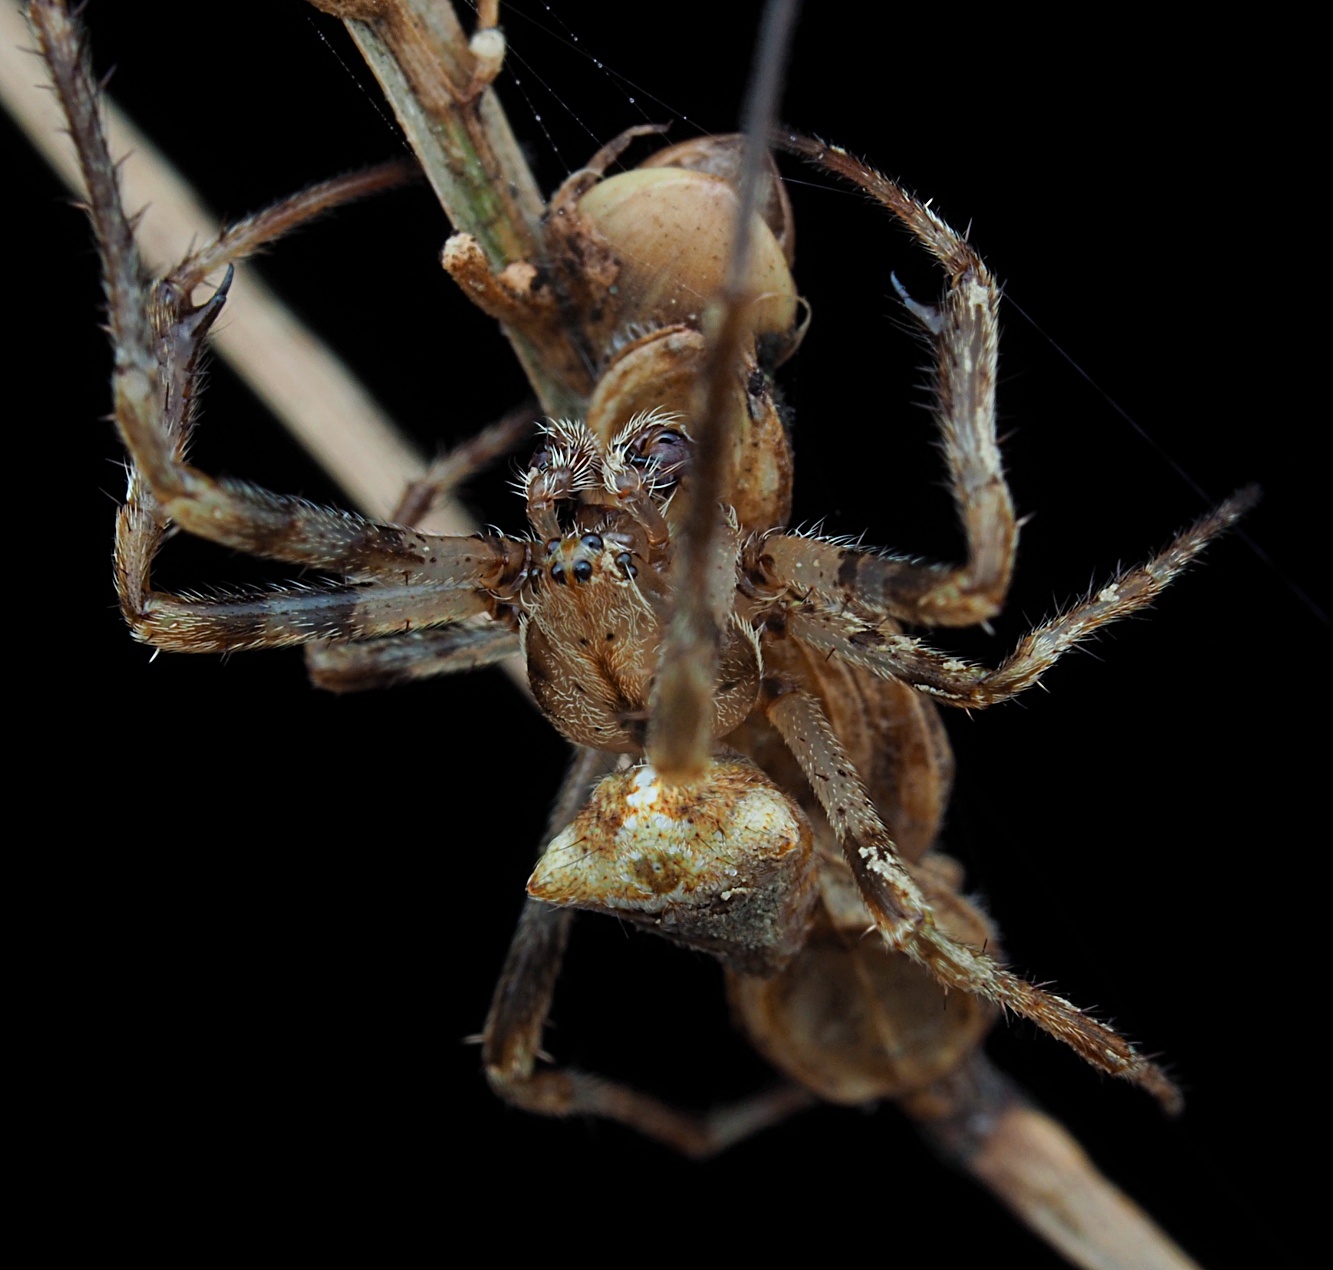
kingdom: Animalia
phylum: Arthropoda
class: Arachnida
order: Araneae
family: Araneidae
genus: Novakiella
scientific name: Novakiella trituberculosa
